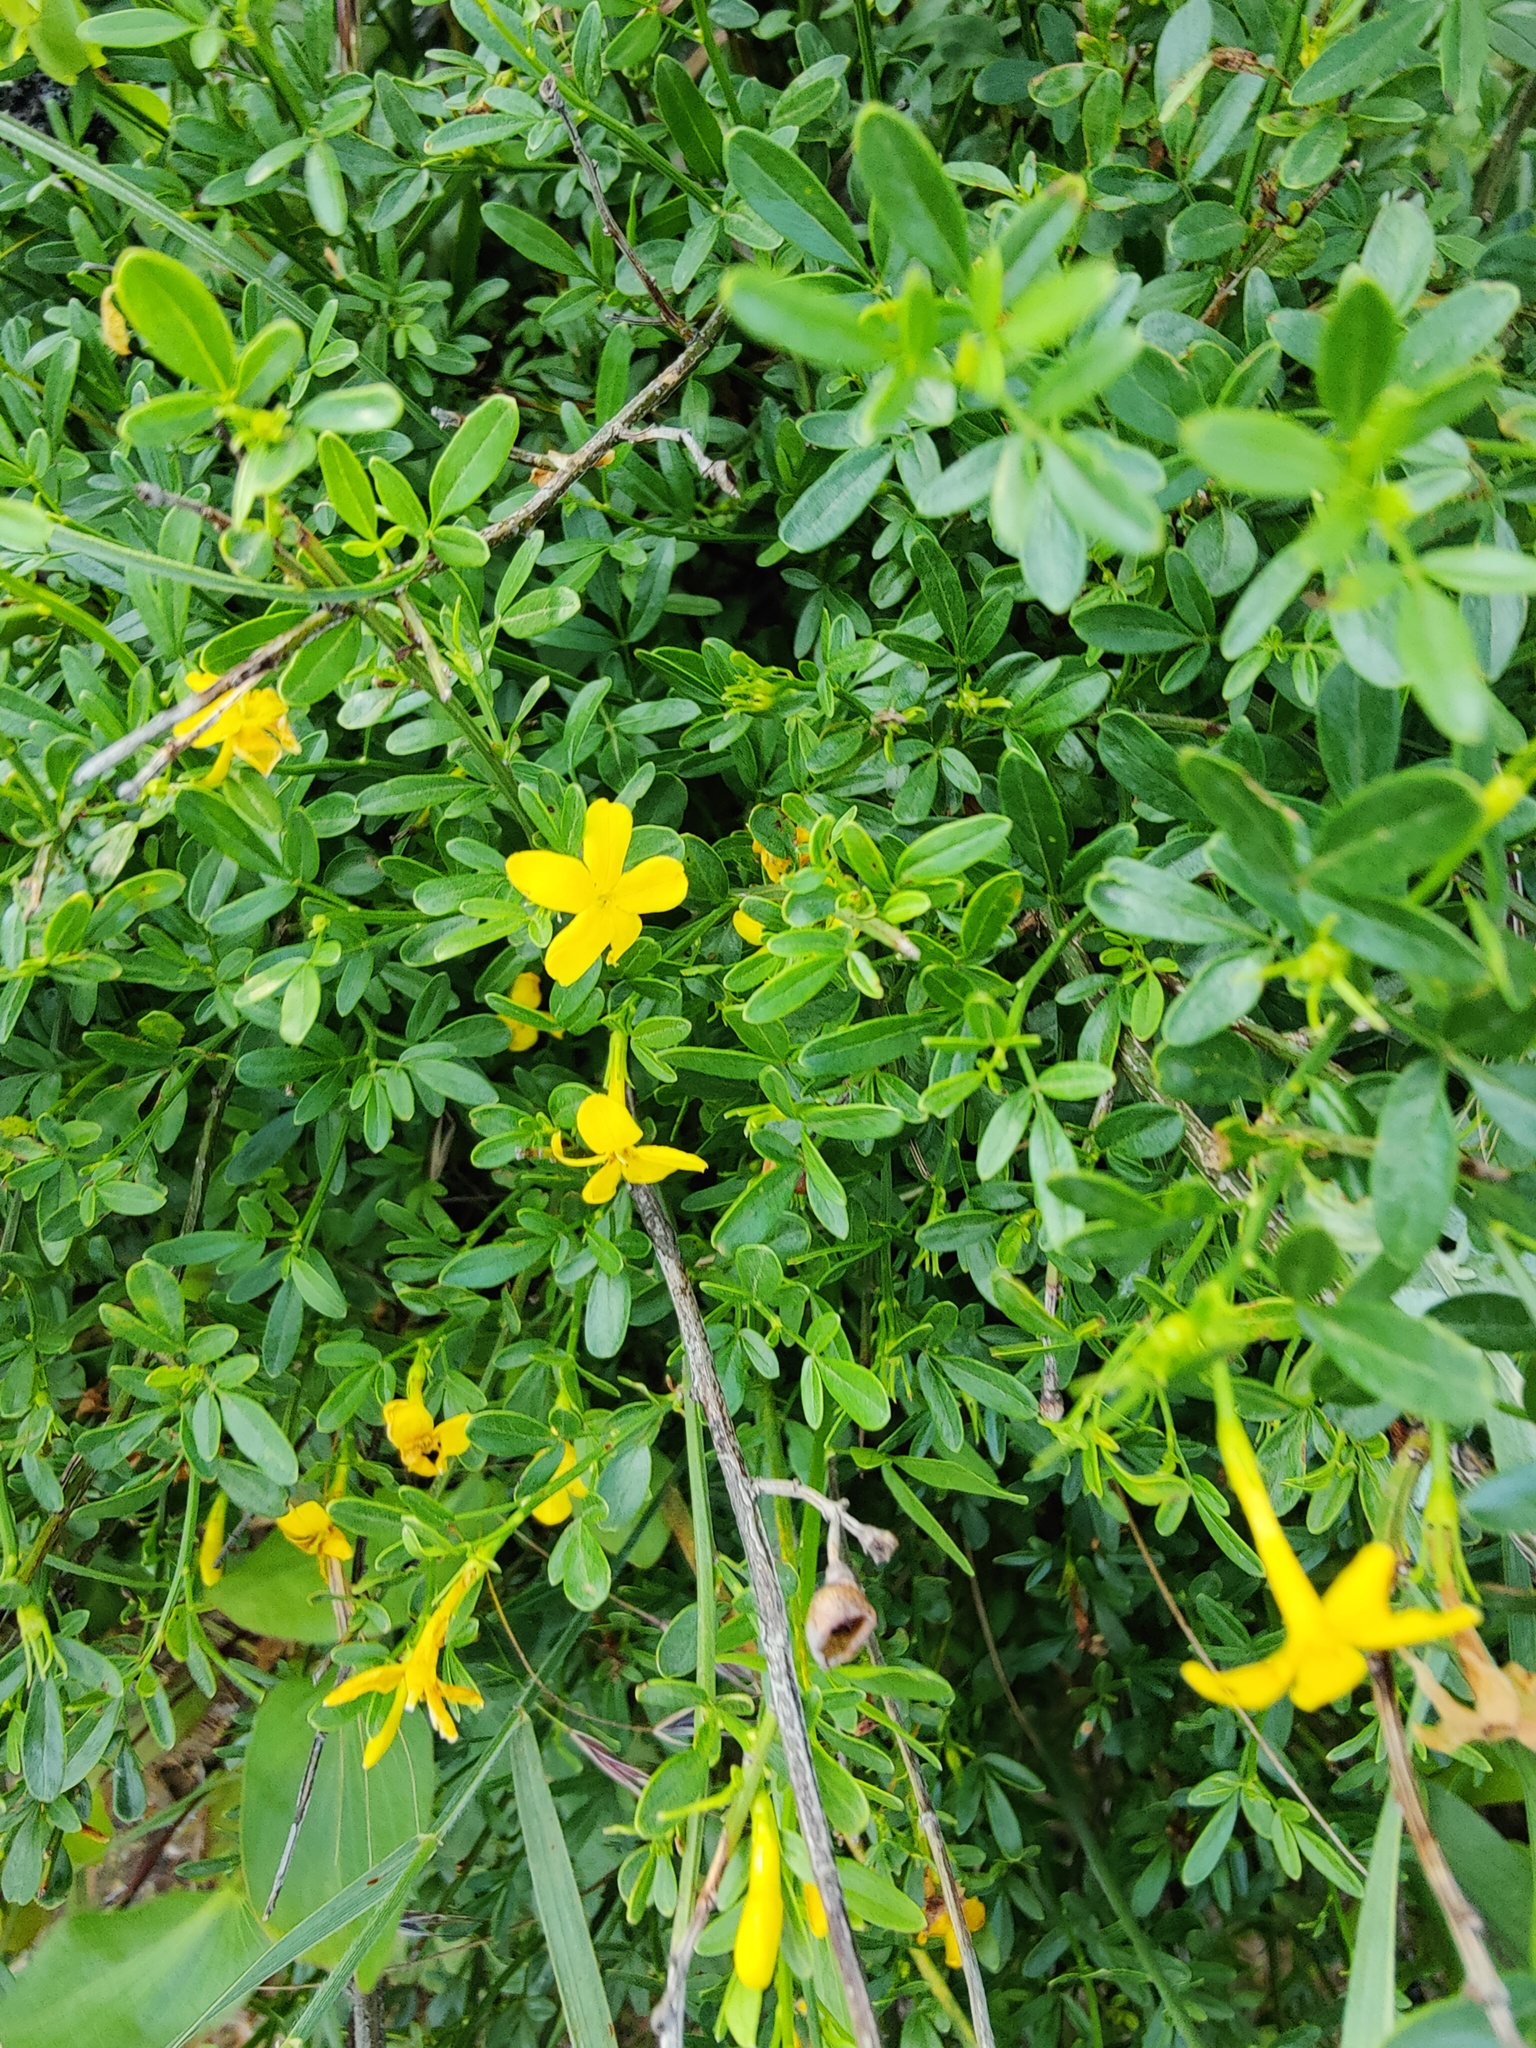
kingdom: Plantae
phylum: Tracheophyta
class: Magnoliopsida
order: Lamiales
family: Oleaceae
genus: Chrysojasminum
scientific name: Chrysojasminum fruticans
